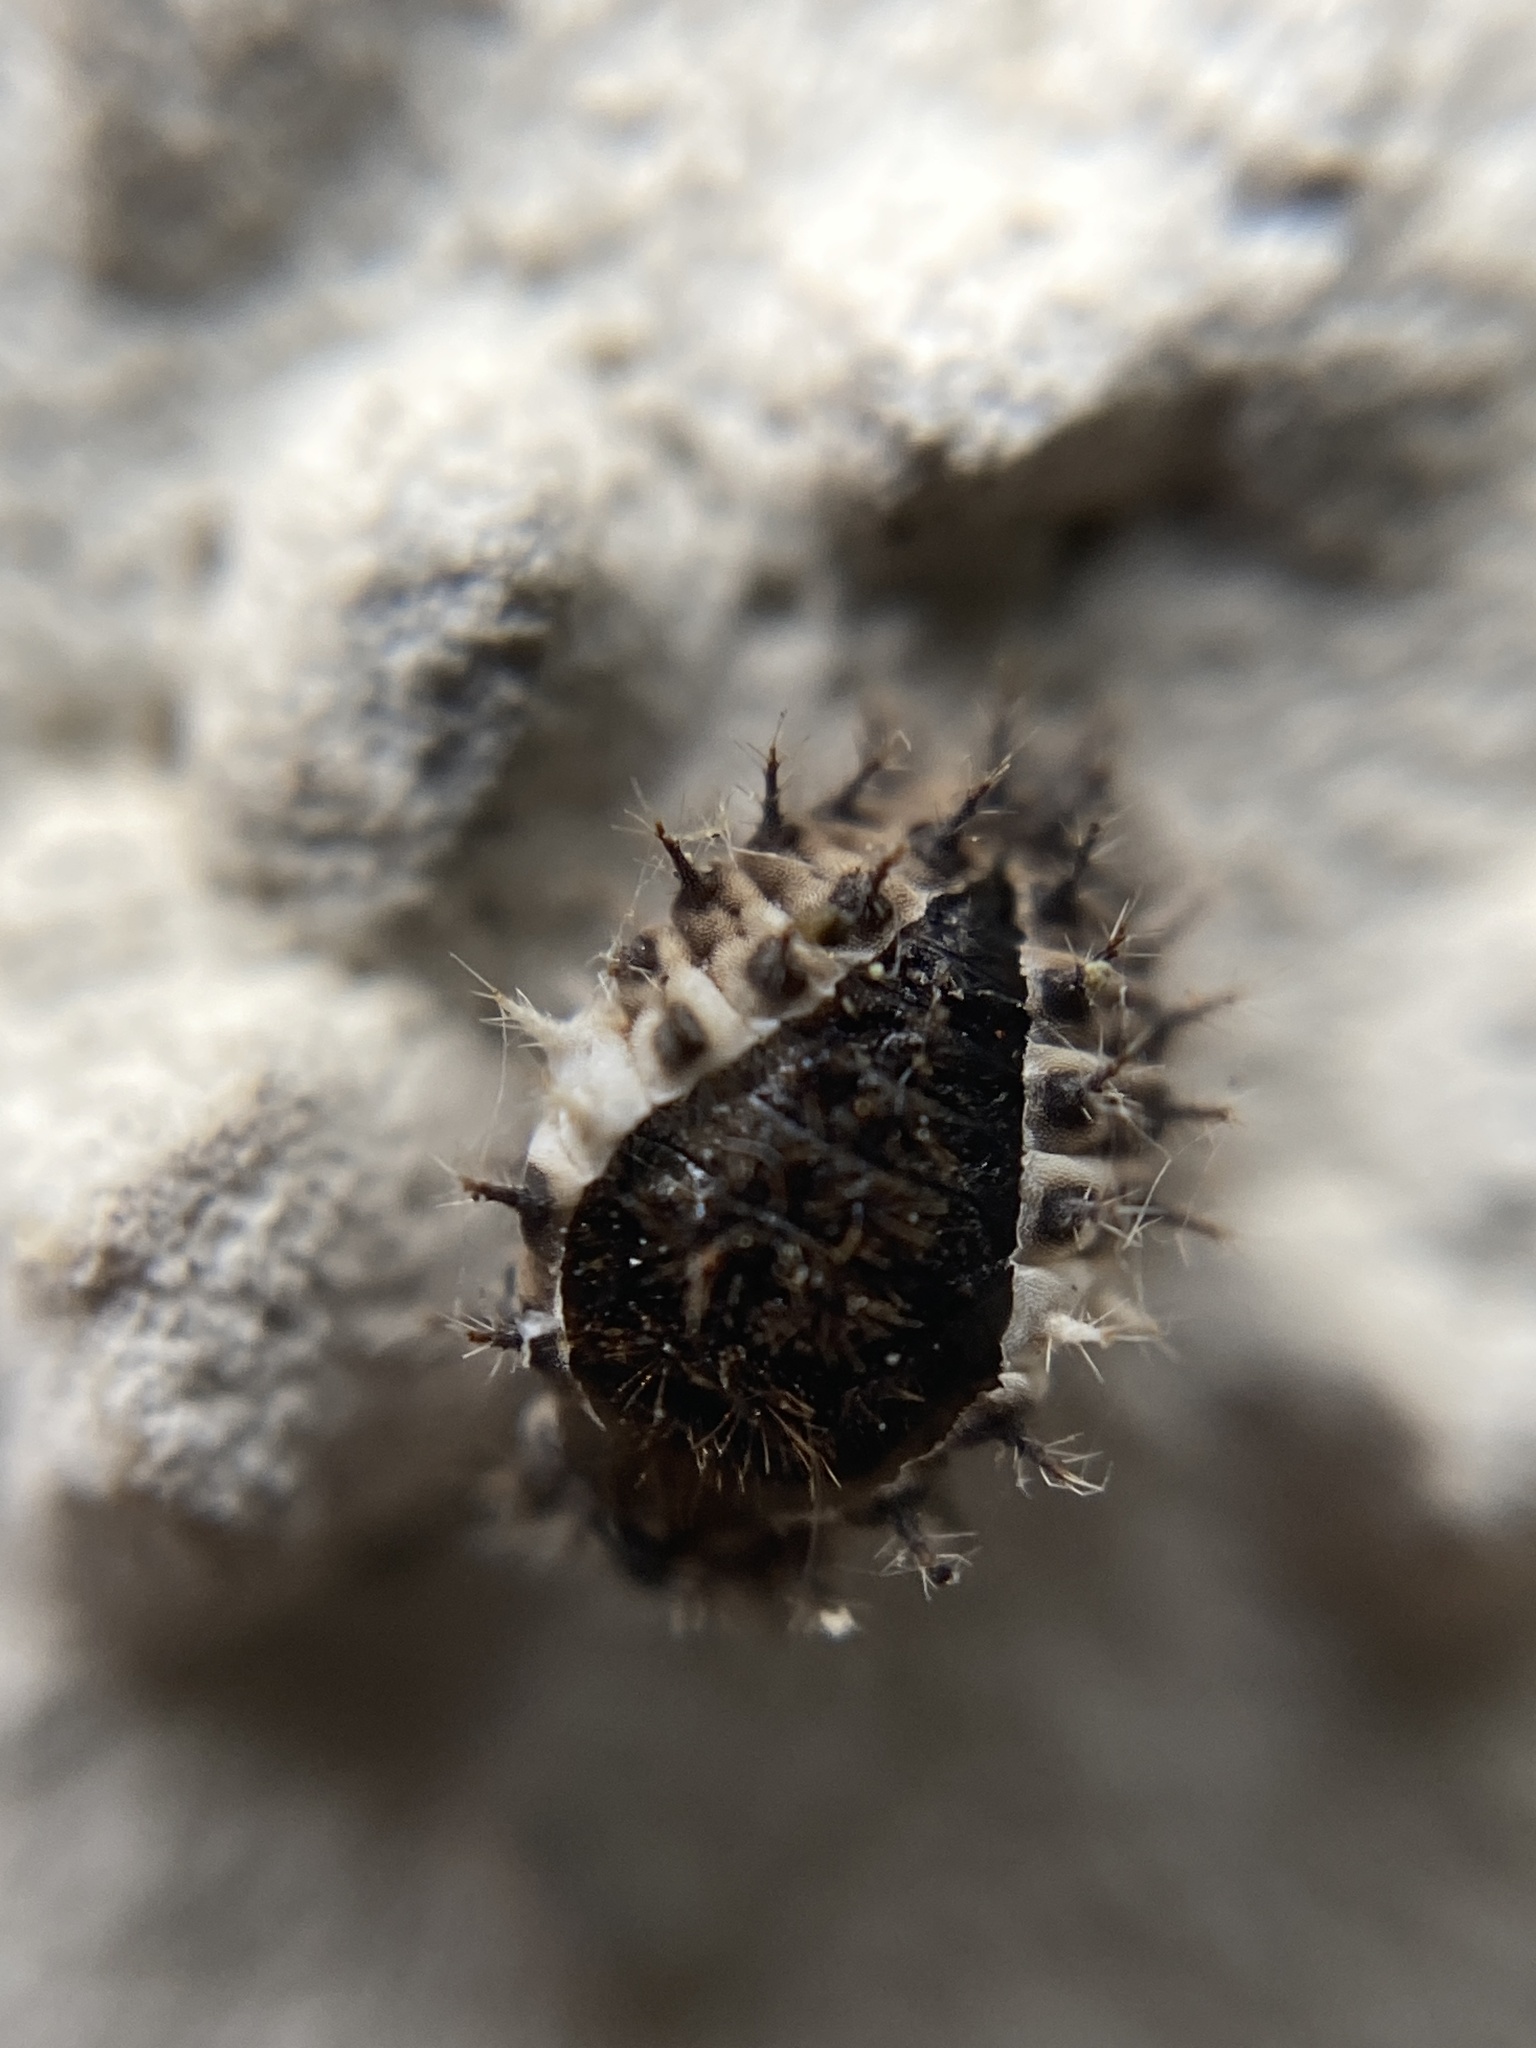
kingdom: Animalia
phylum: Arthropoda
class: Insecta
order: Coleoptera
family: Coccinellidae
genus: Chilocorus
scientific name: Chilocorus bipustulatus
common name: Heather ladybird
